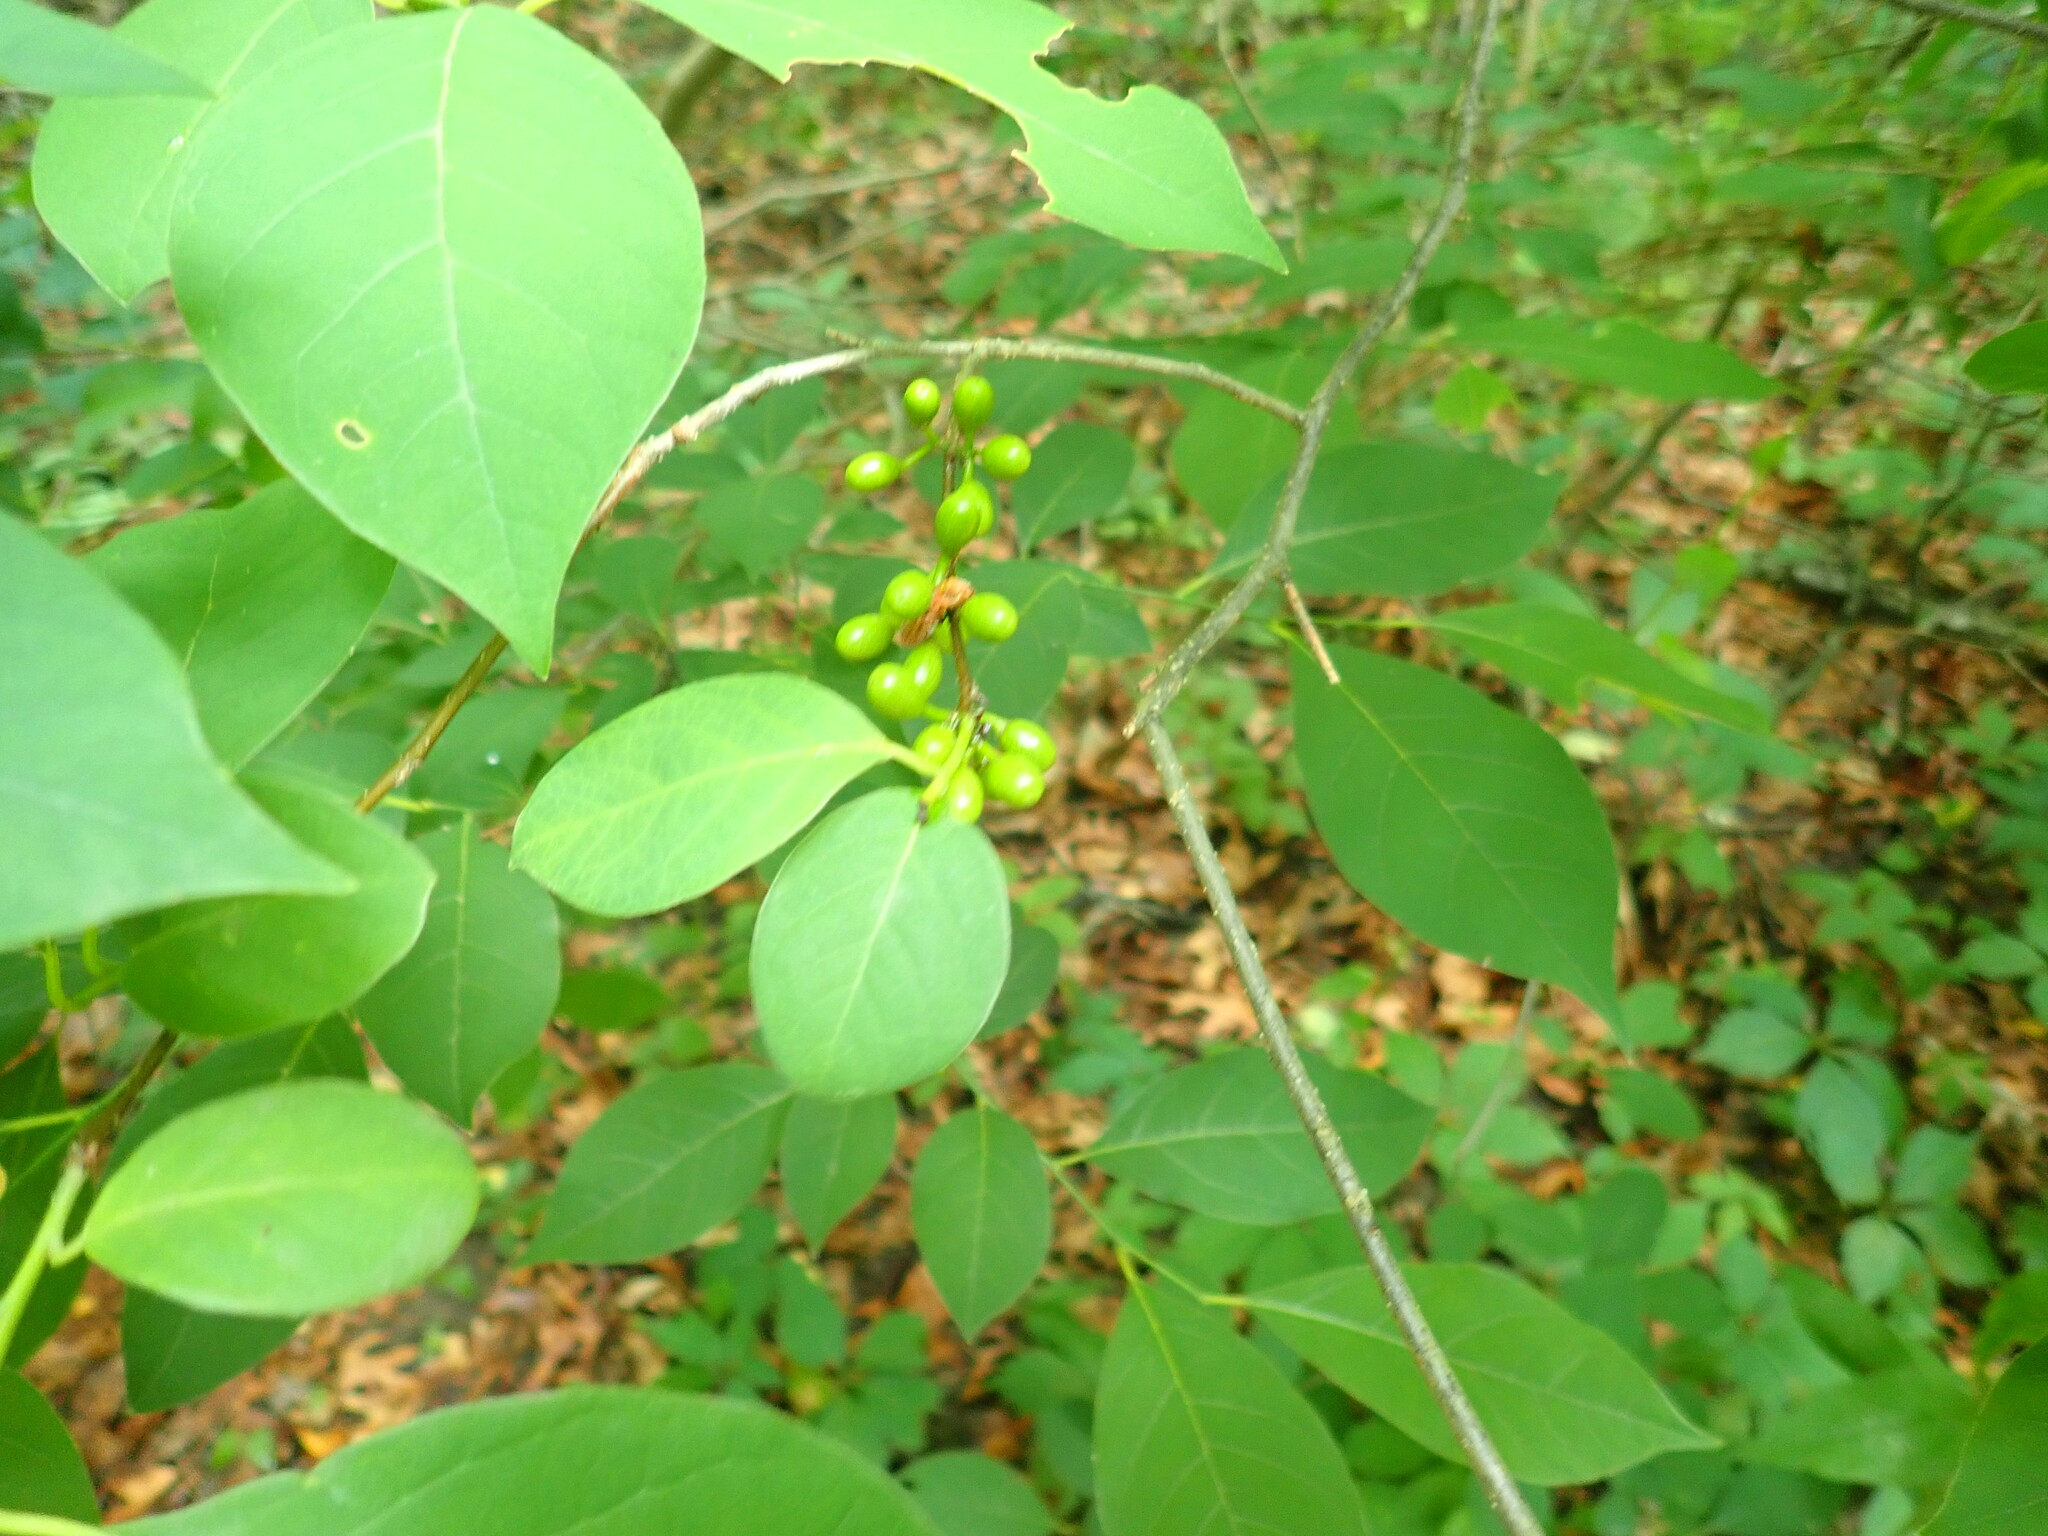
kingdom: Plantae
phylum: Tracheophyta
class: Magnoliopsida
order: Laurales
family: Lauraceae
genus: Lindera
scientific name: Lindera benzoin
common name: Spicebush
